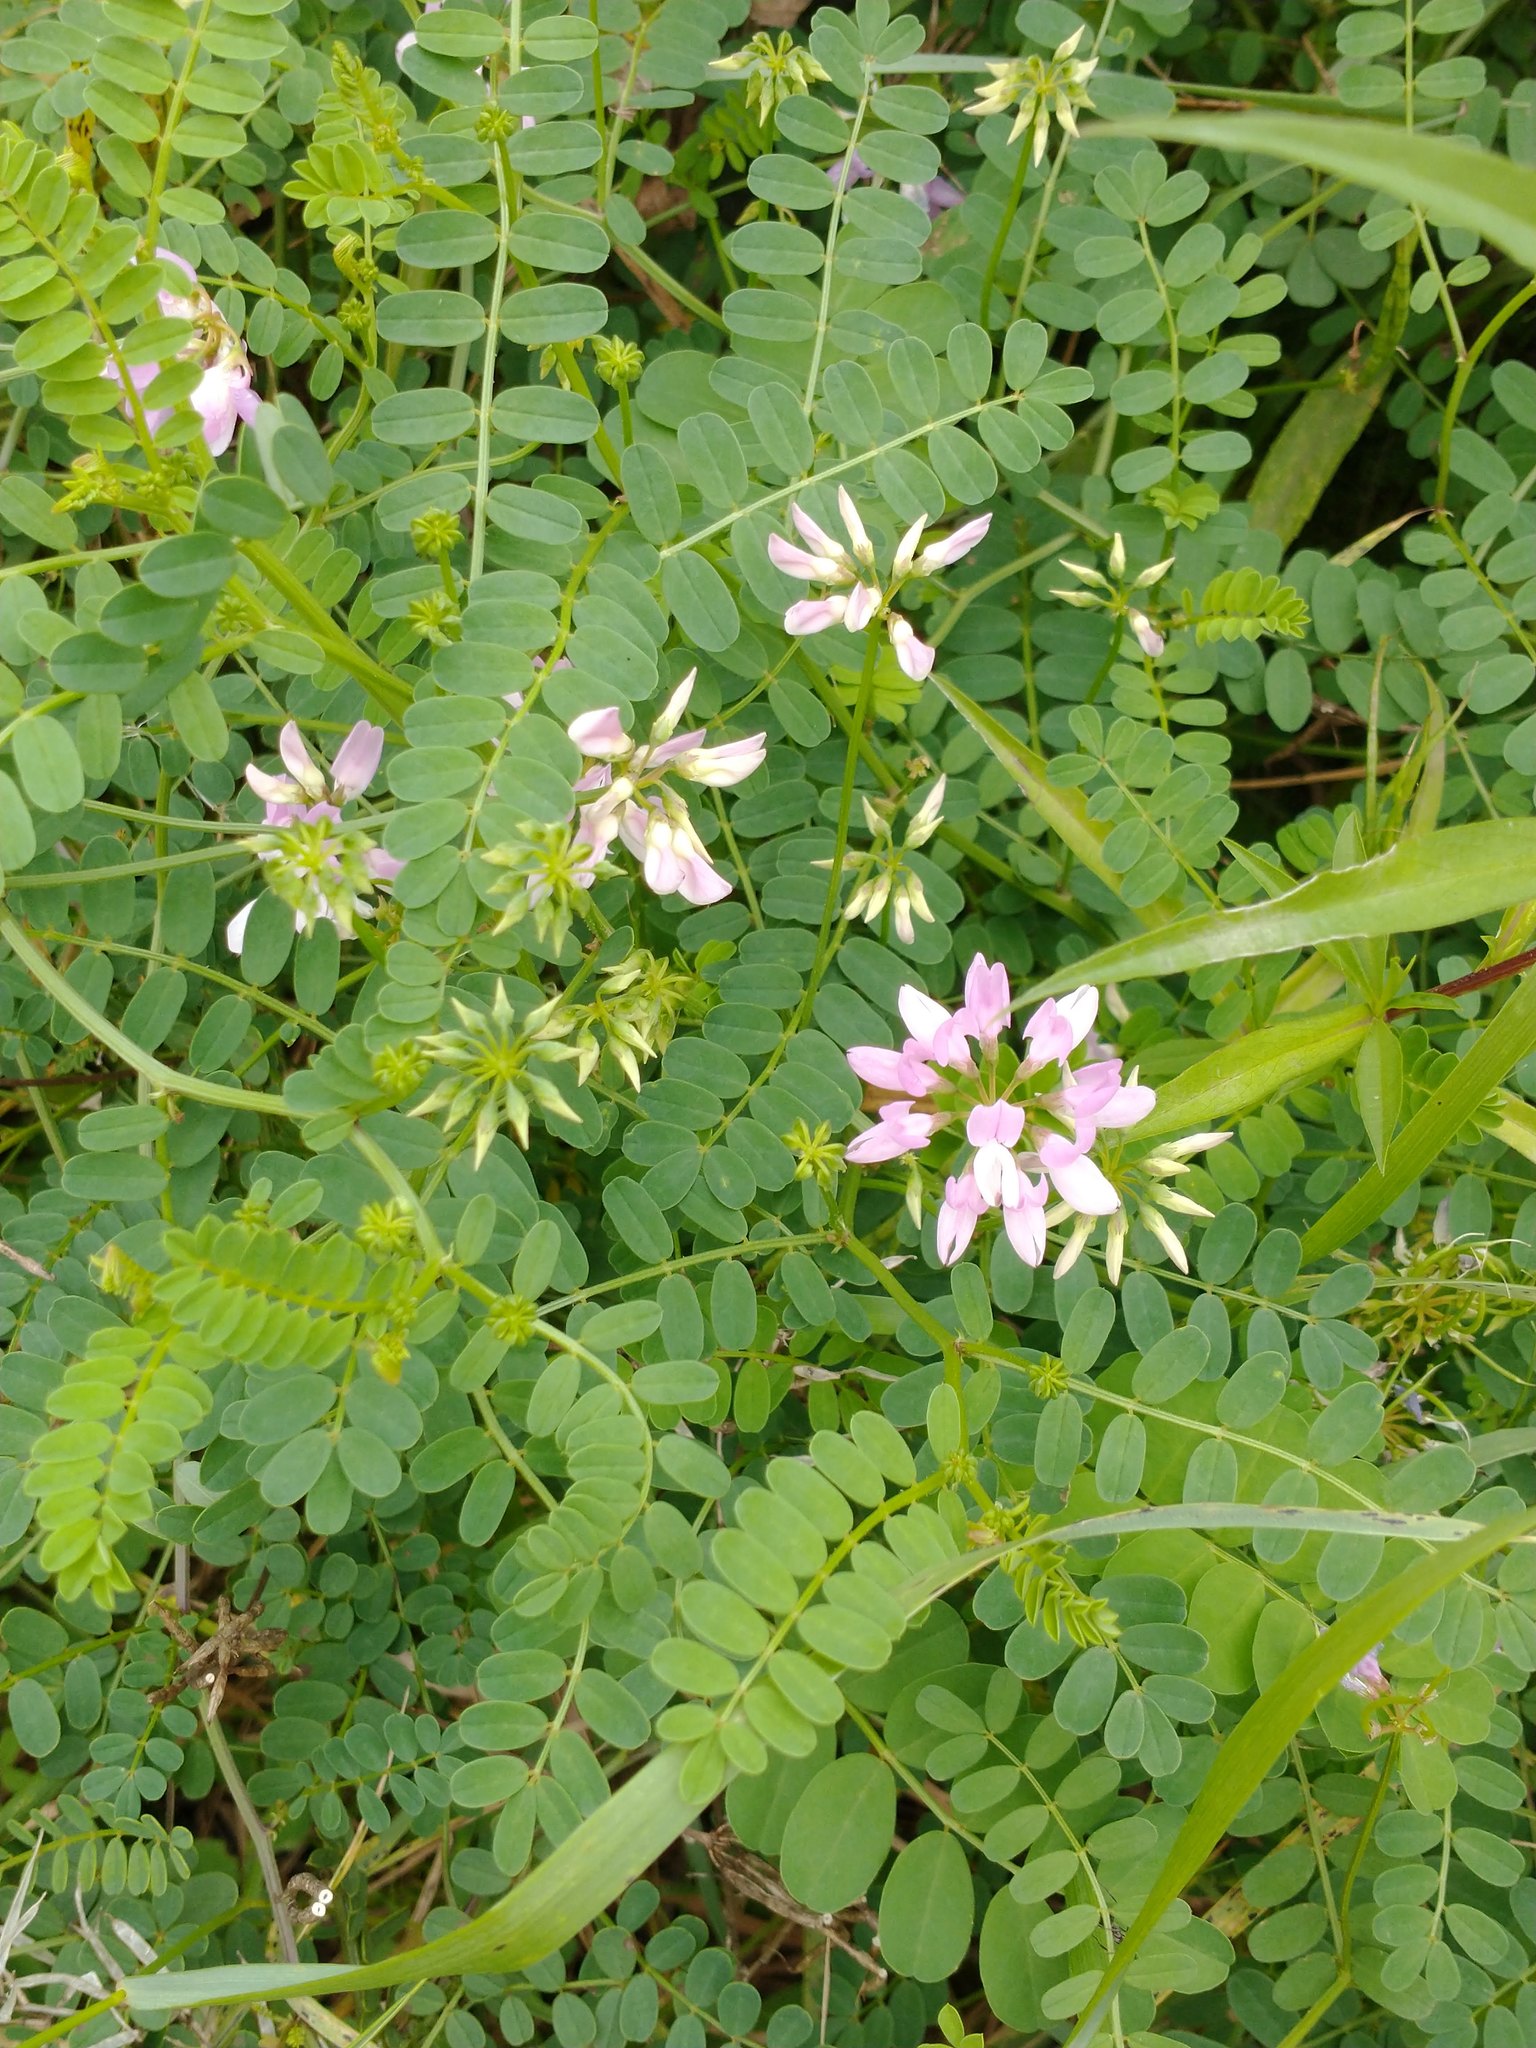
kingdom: Plantae
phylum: Tracheophyta
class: Magnoliopsida
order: Fabales
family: Fabaceae
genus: Coronilla
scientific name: Coronilla varia
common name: Crownvetch
